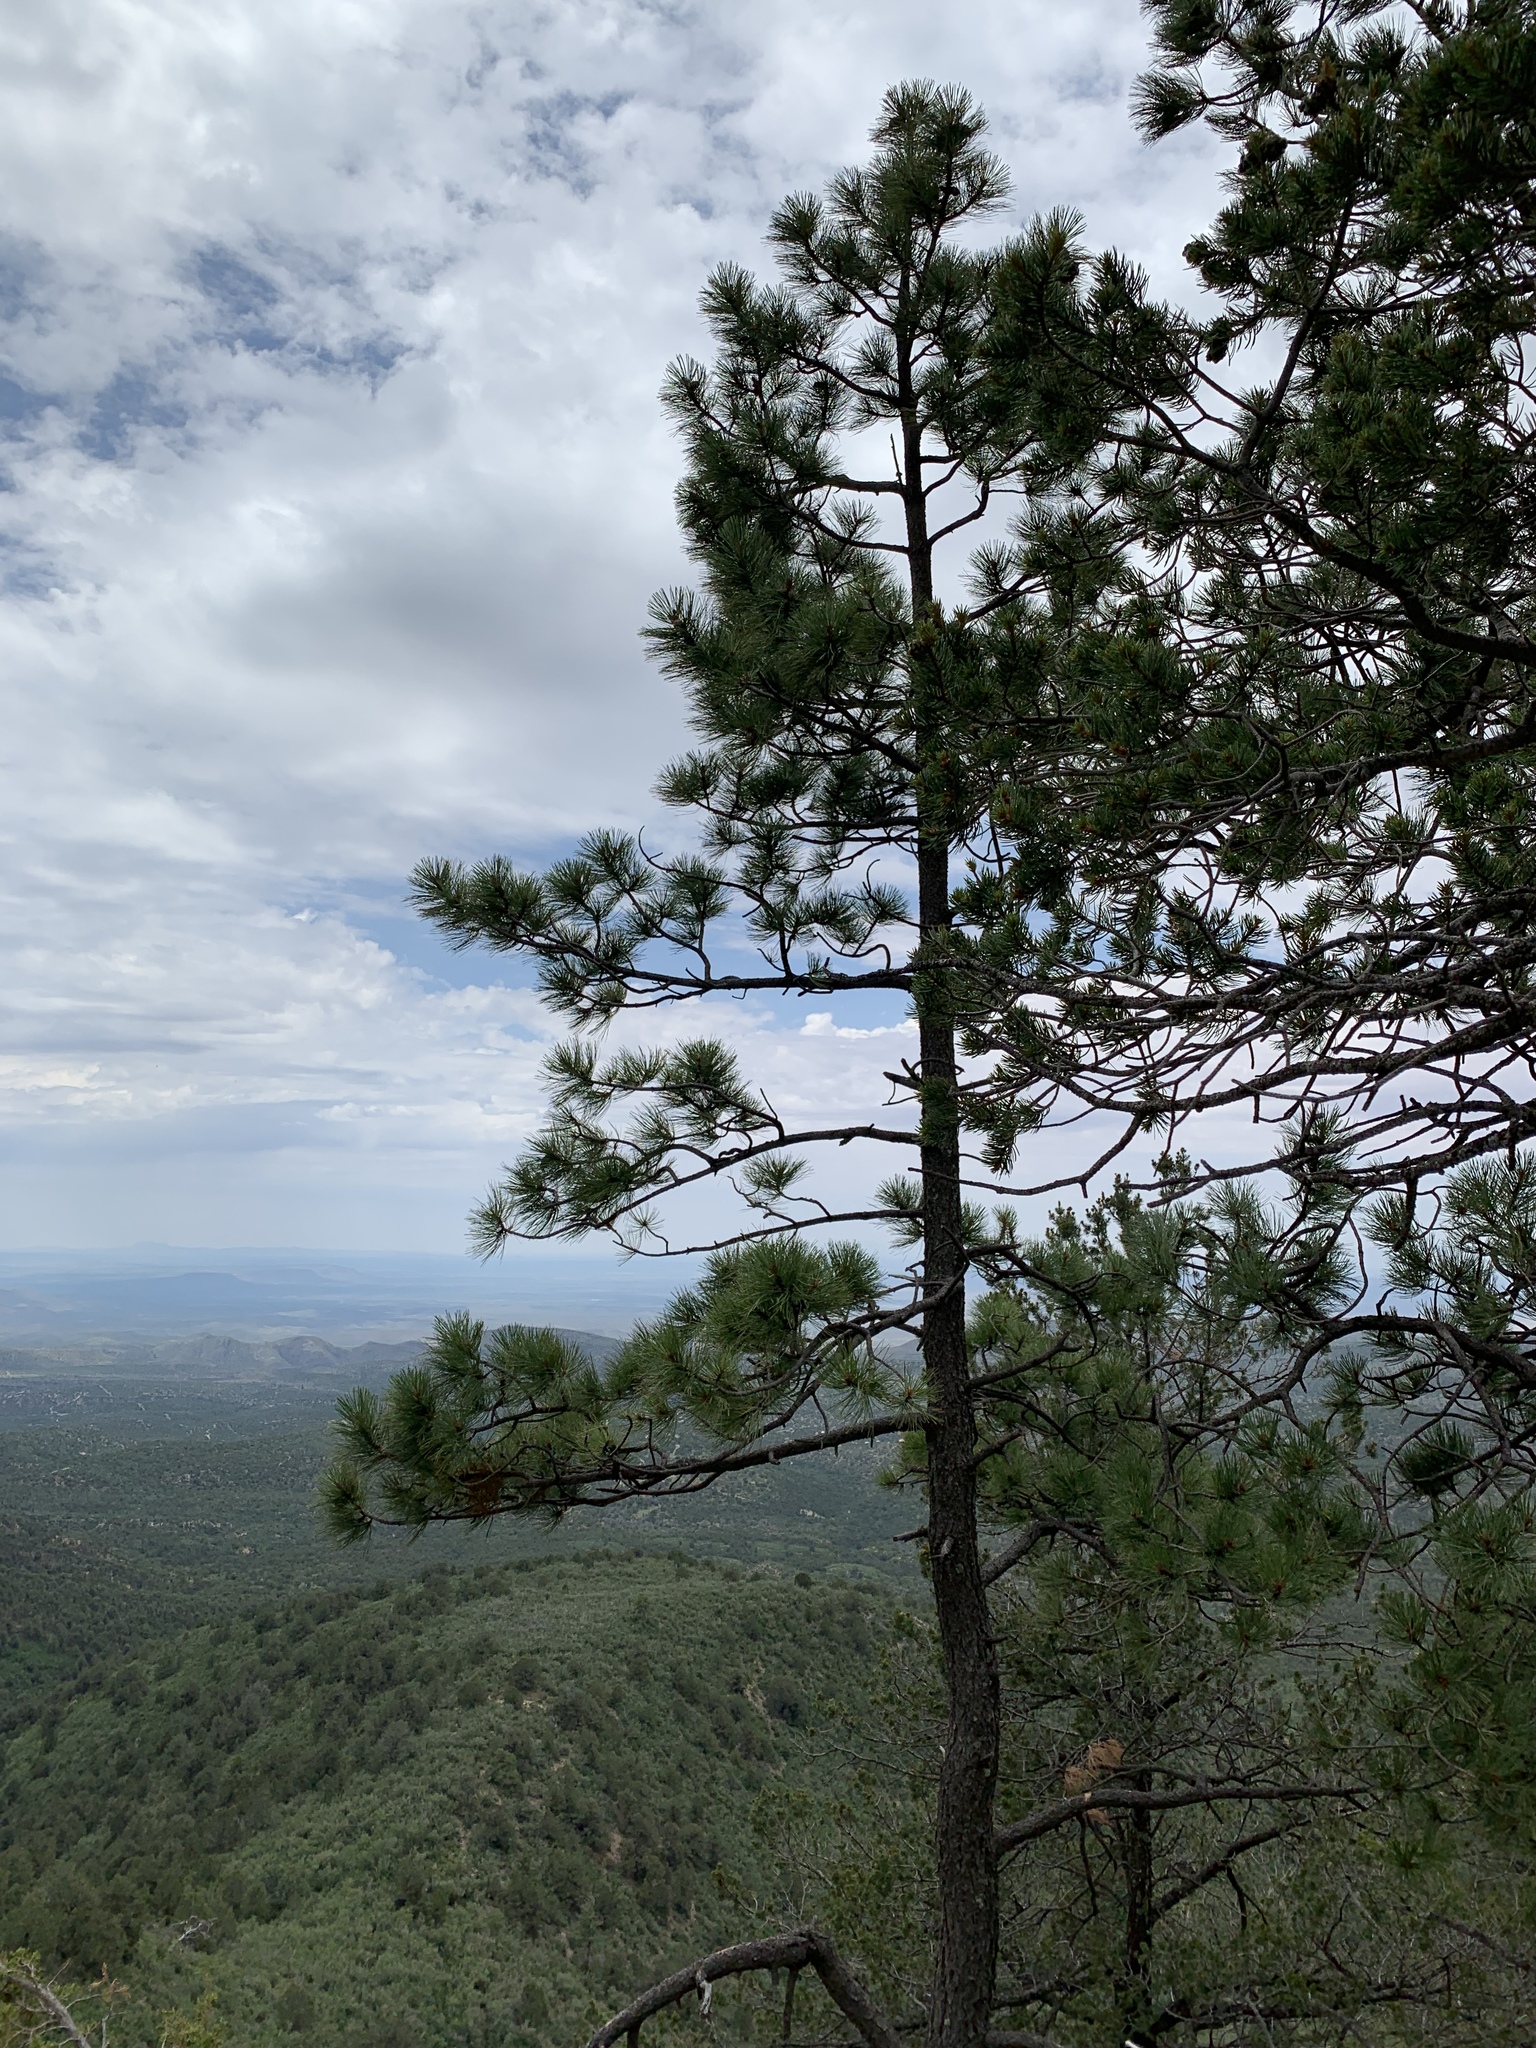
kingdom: Plantae
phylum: Tracheophyta
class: Pinopsida
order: Pinales
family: Pinaceae
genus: Pinus
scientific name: Pinus ponderosa
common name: Western yellow-pine
